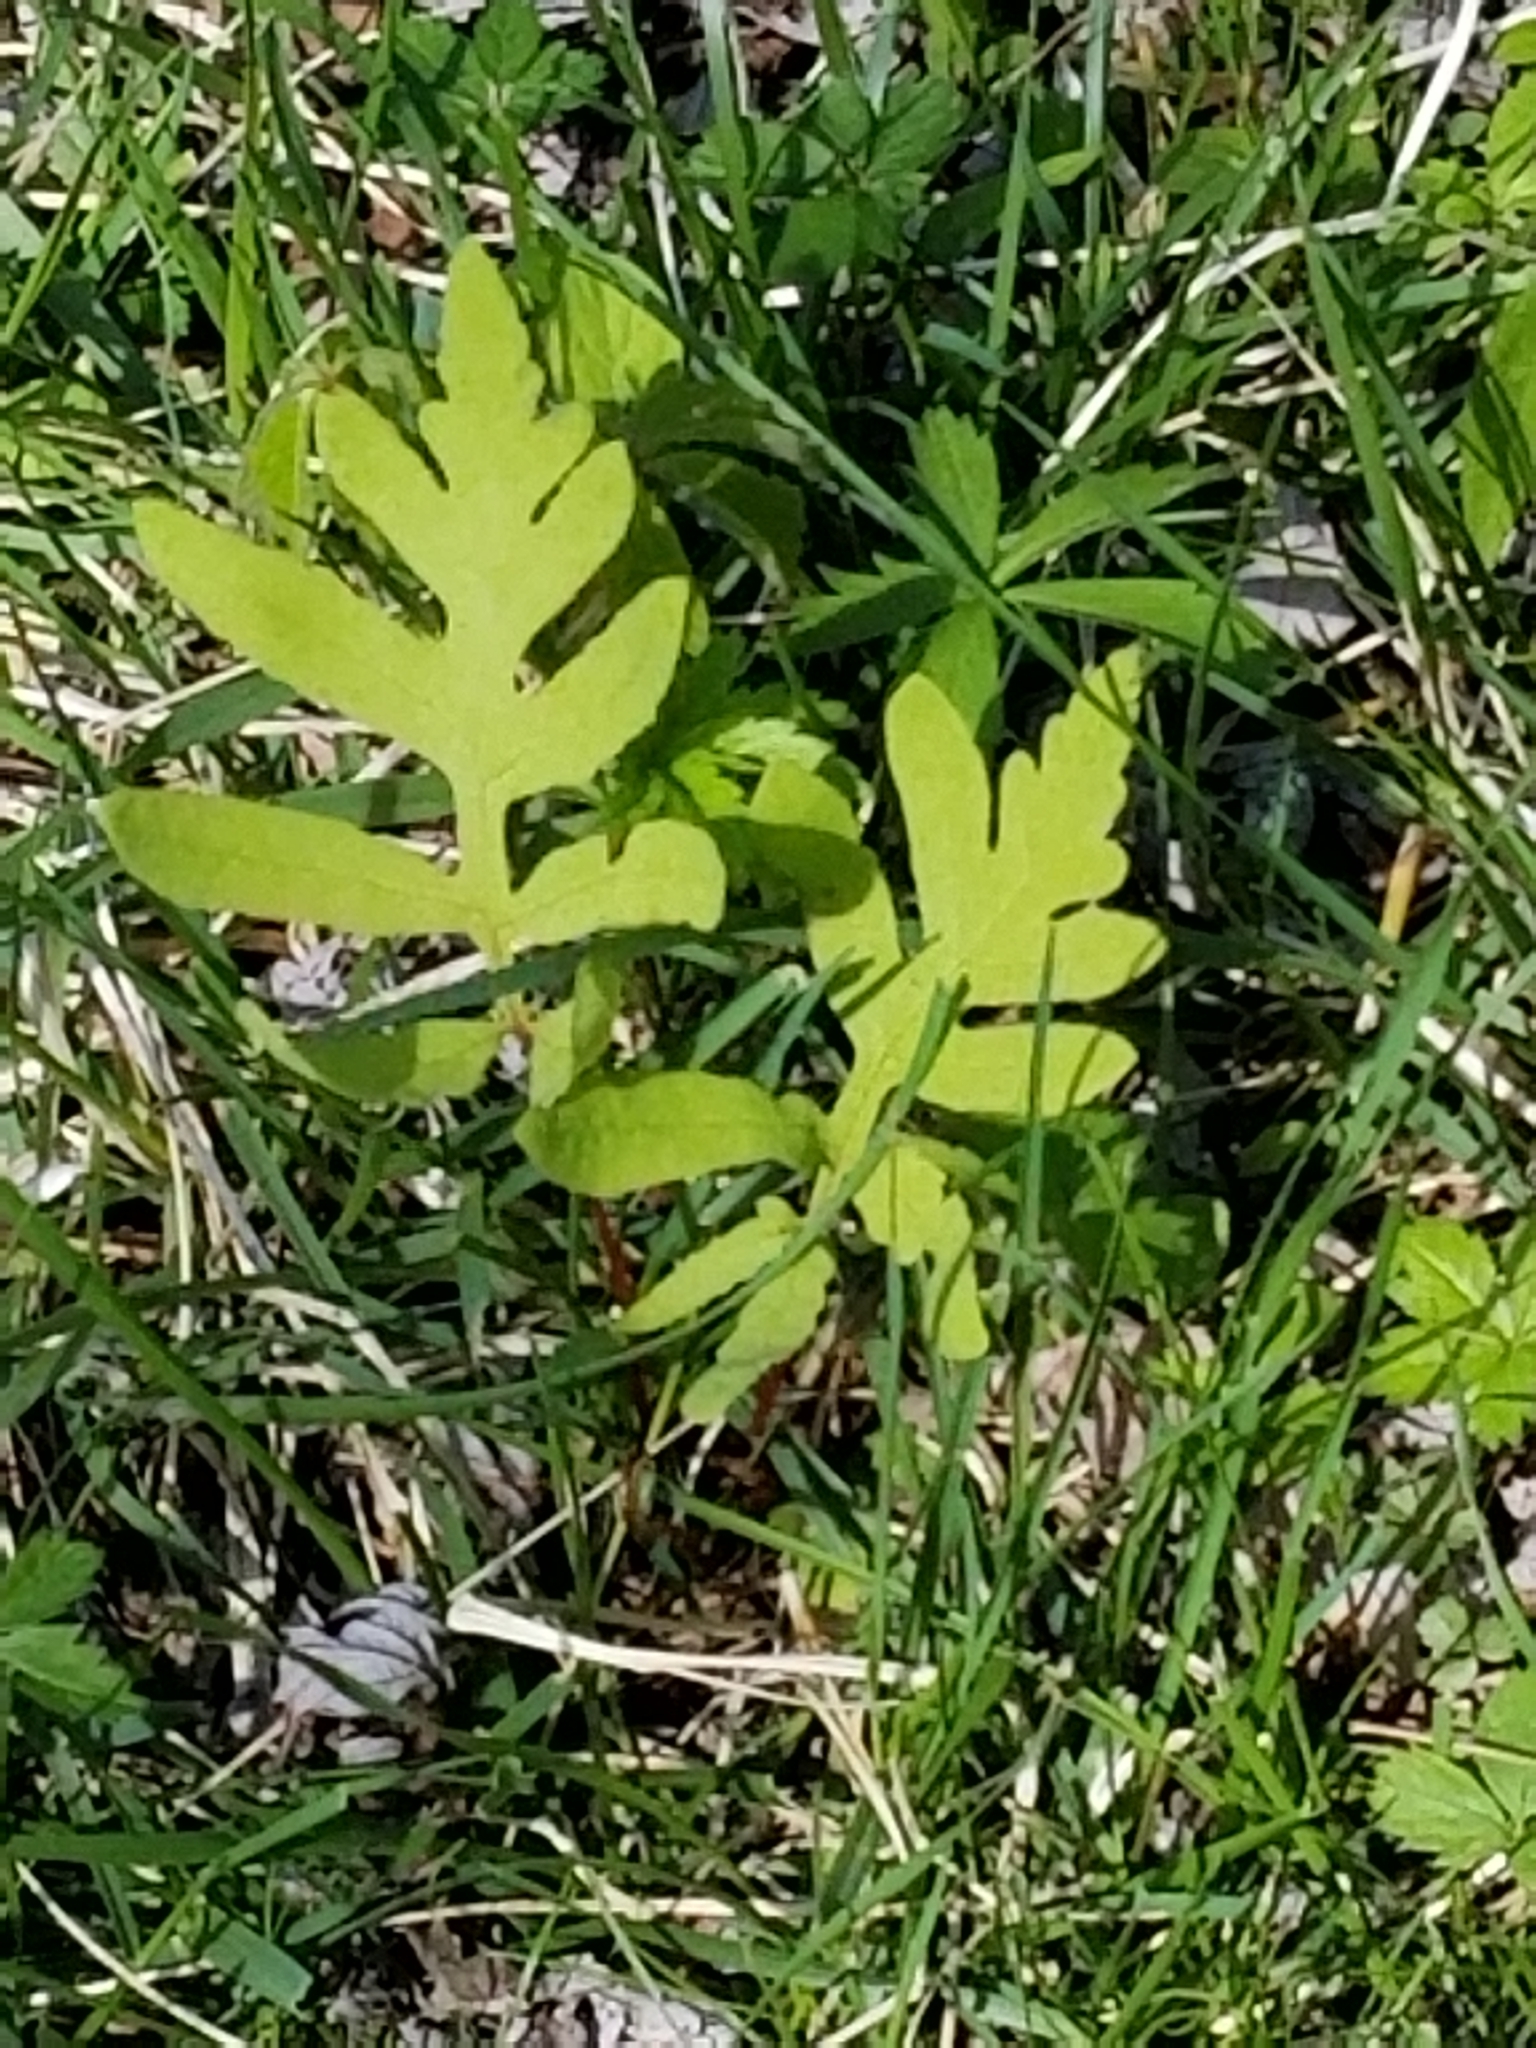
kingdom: Plantae
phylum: Tracheophyta
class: Polypodiopsida
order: Polypodiales
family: Onocleaceae
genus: Onoclea
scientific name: Onoclea sensibilis
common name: Sensitive fern
